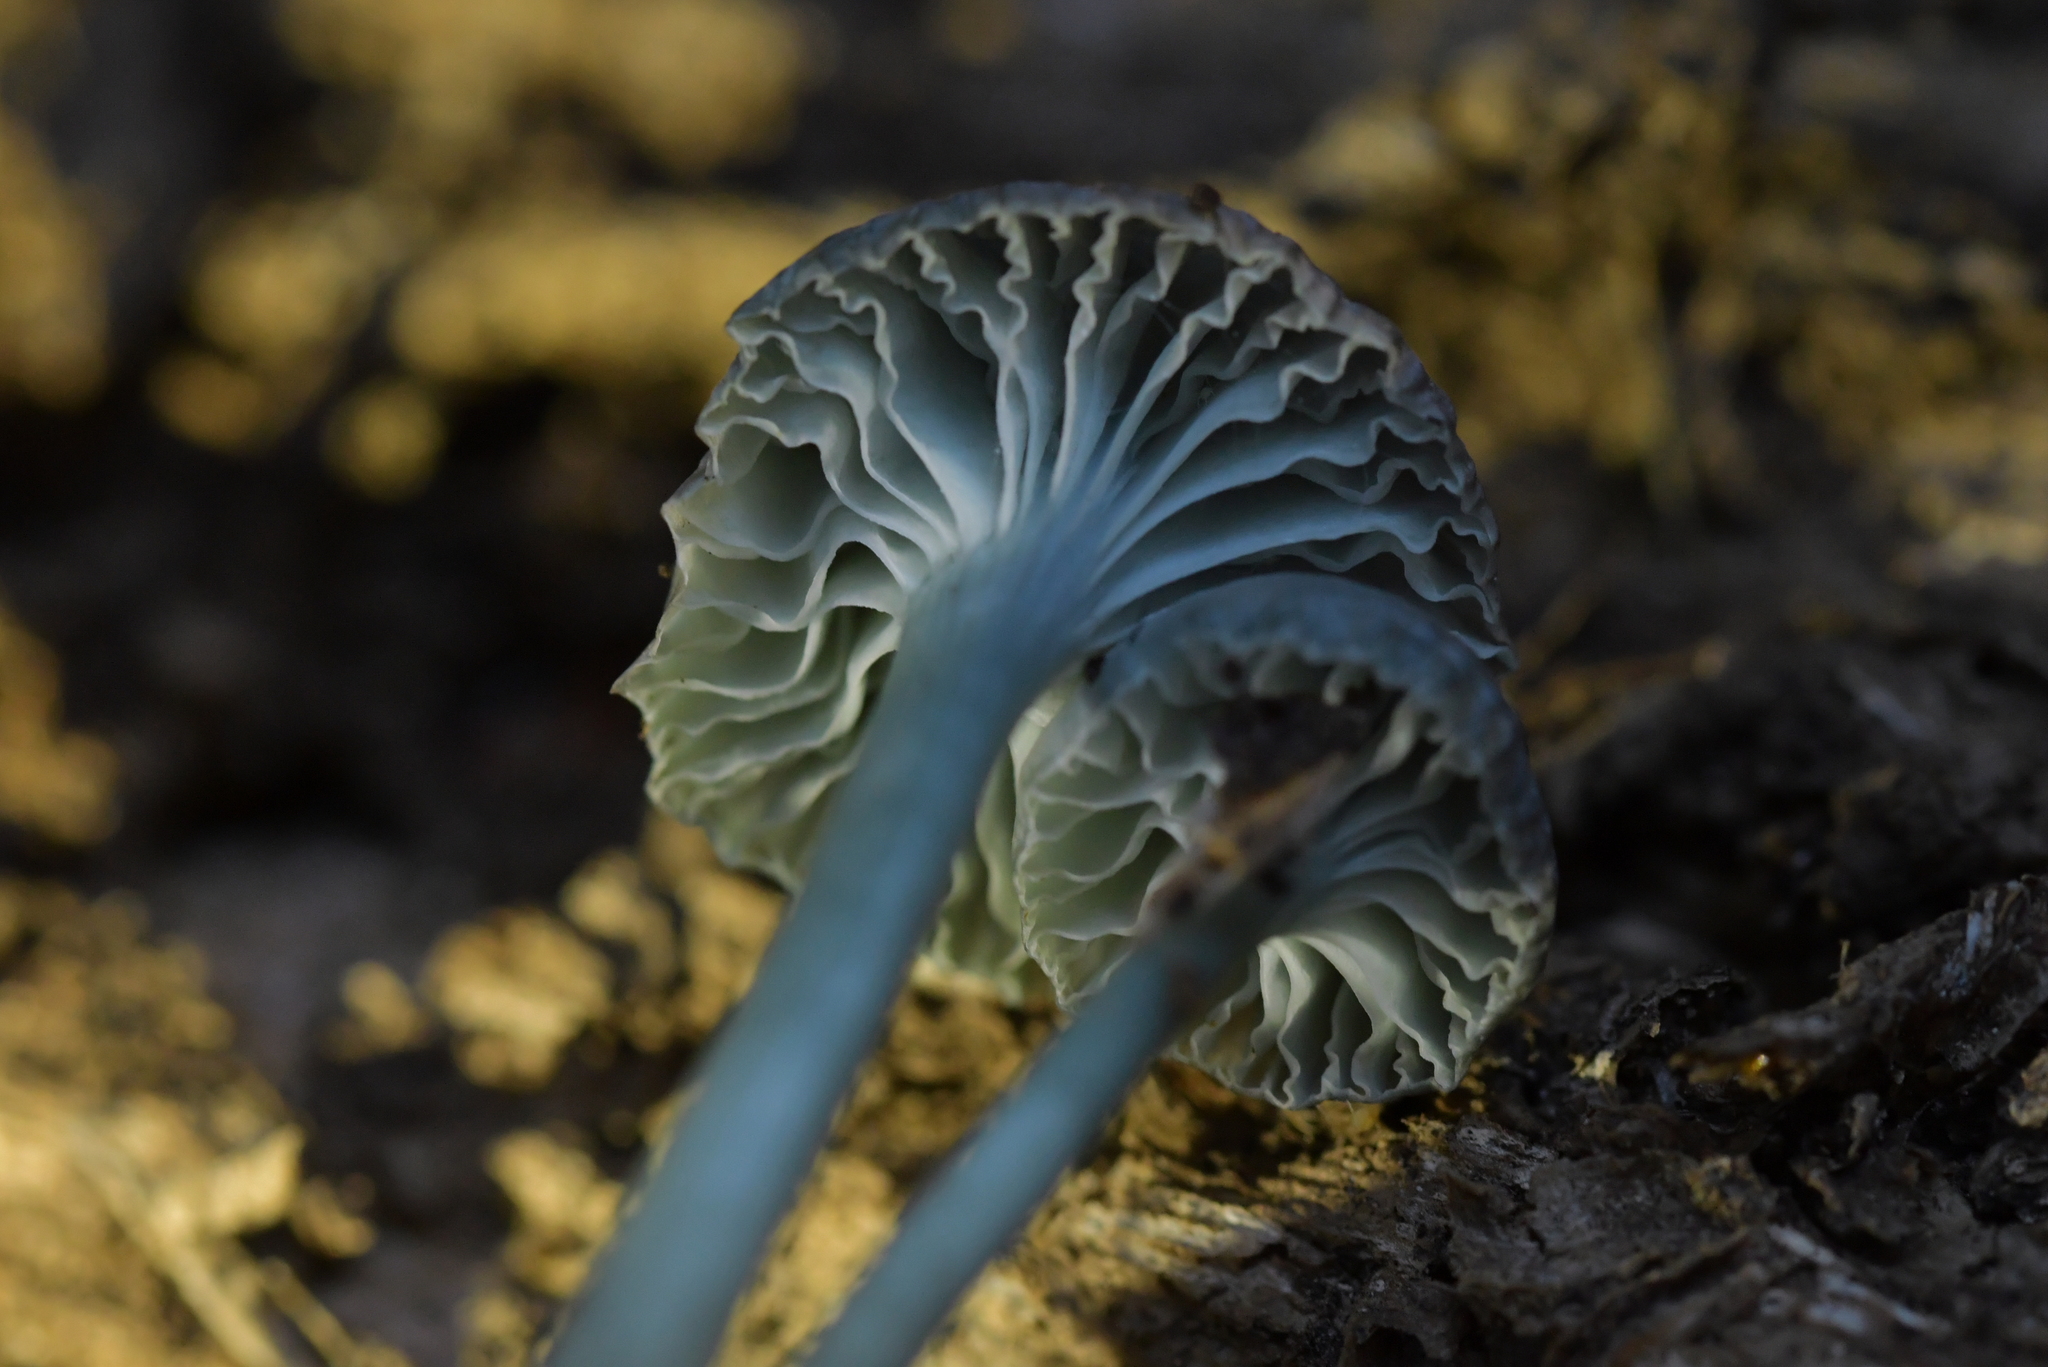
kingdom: Fungi
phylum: Basidiomycota
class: Agaricomycetes
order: Agaricales
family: Hygrophoraceae
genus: Gliophorus
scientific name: Gliophorus lilacipes
